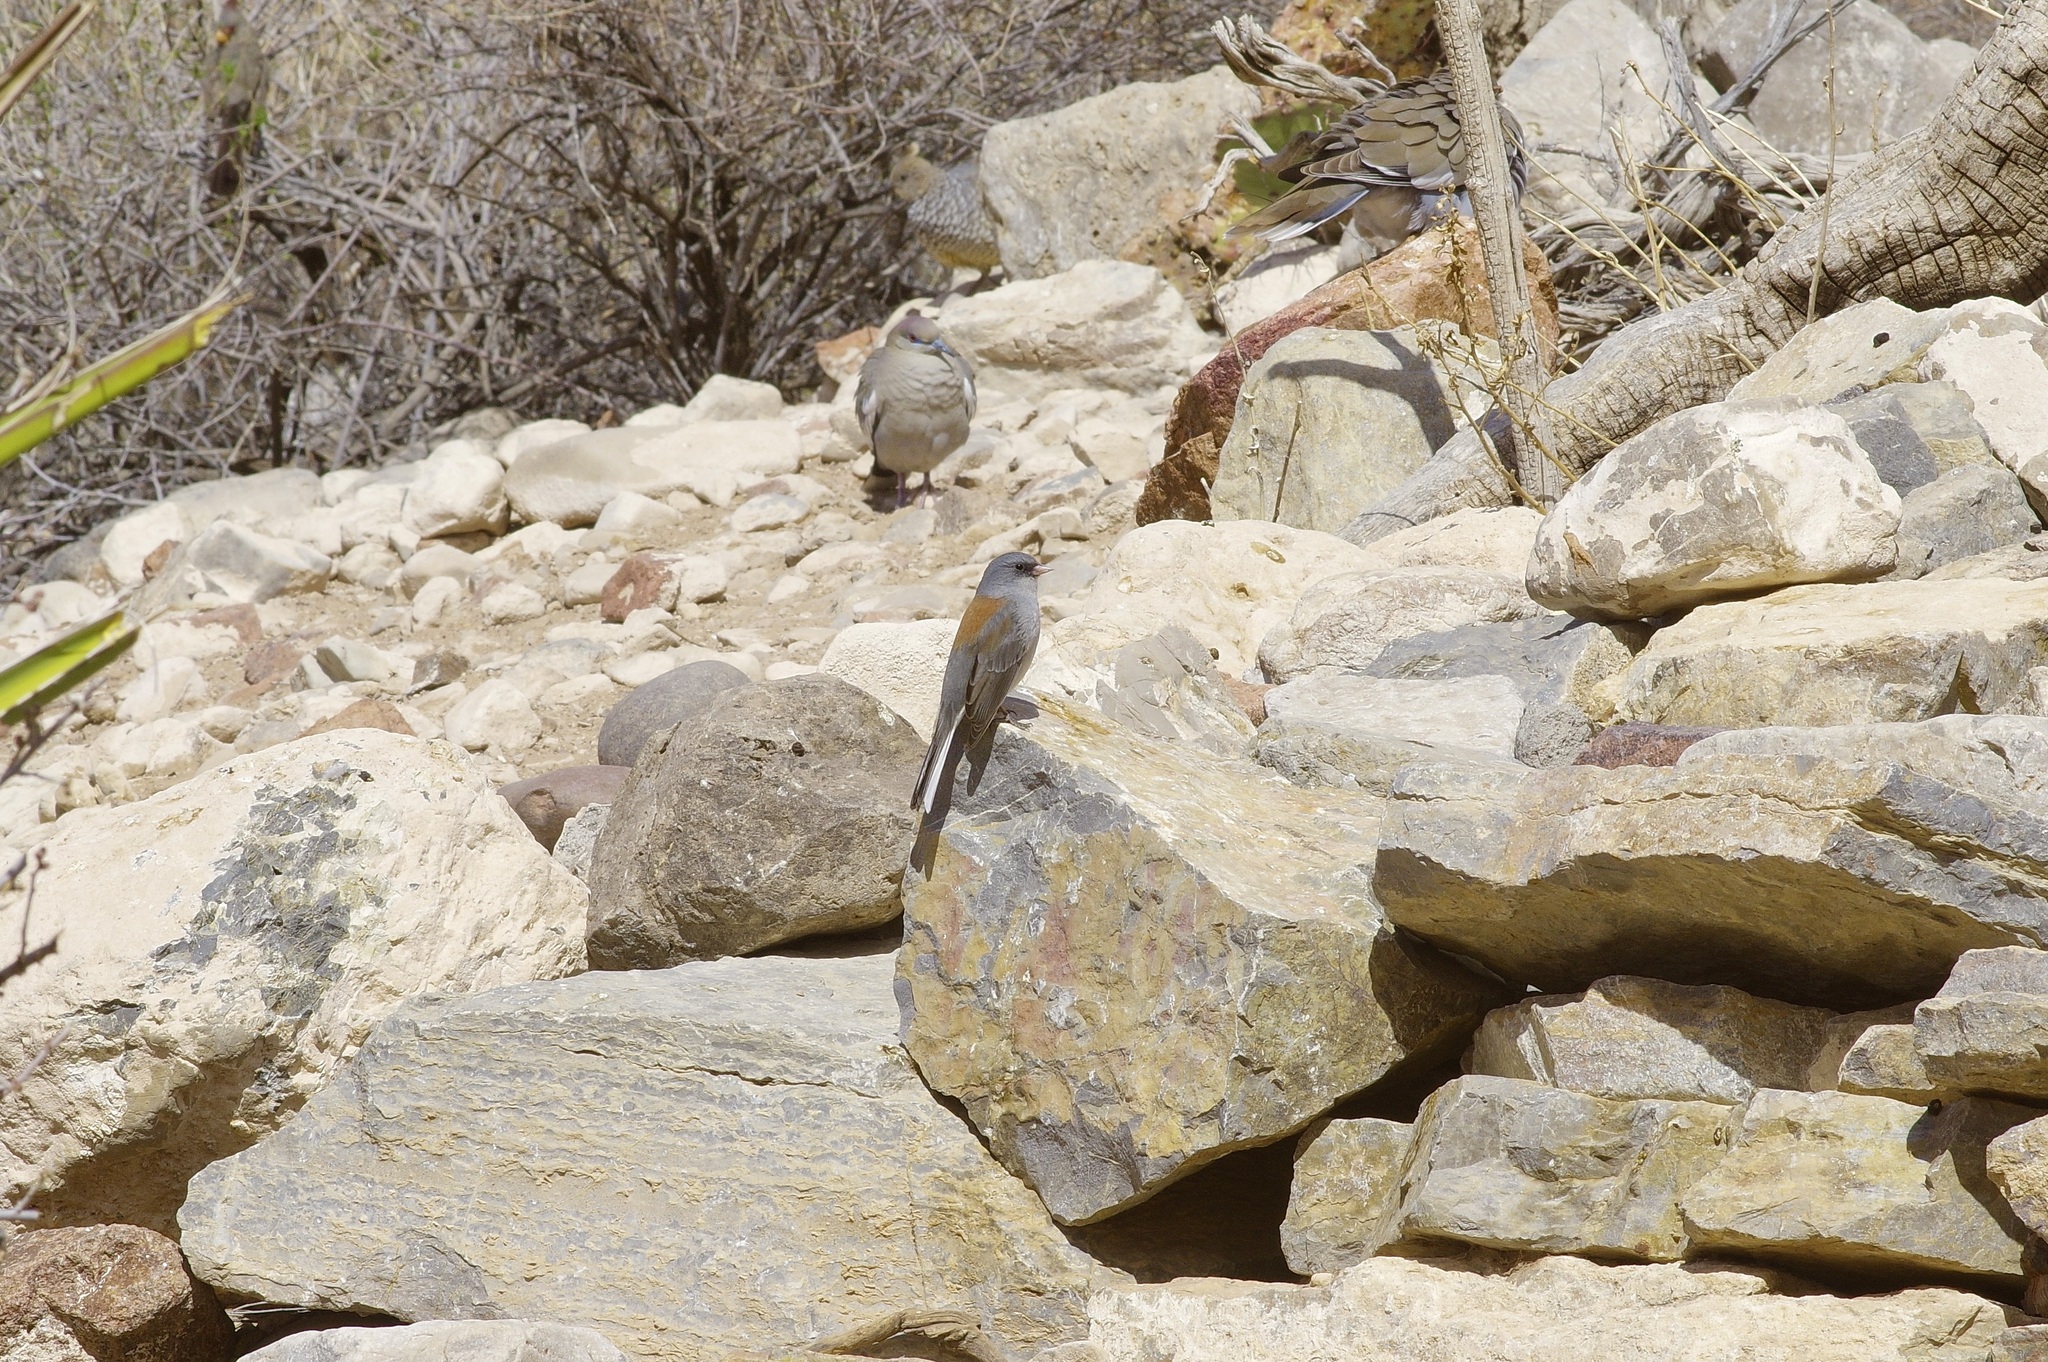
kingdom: Animalia
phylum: Chordata
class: Aves
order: Passeriformes
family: Passerellidae
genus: Junco
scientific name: Junco hyemalis
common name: Dark-eyed junco
